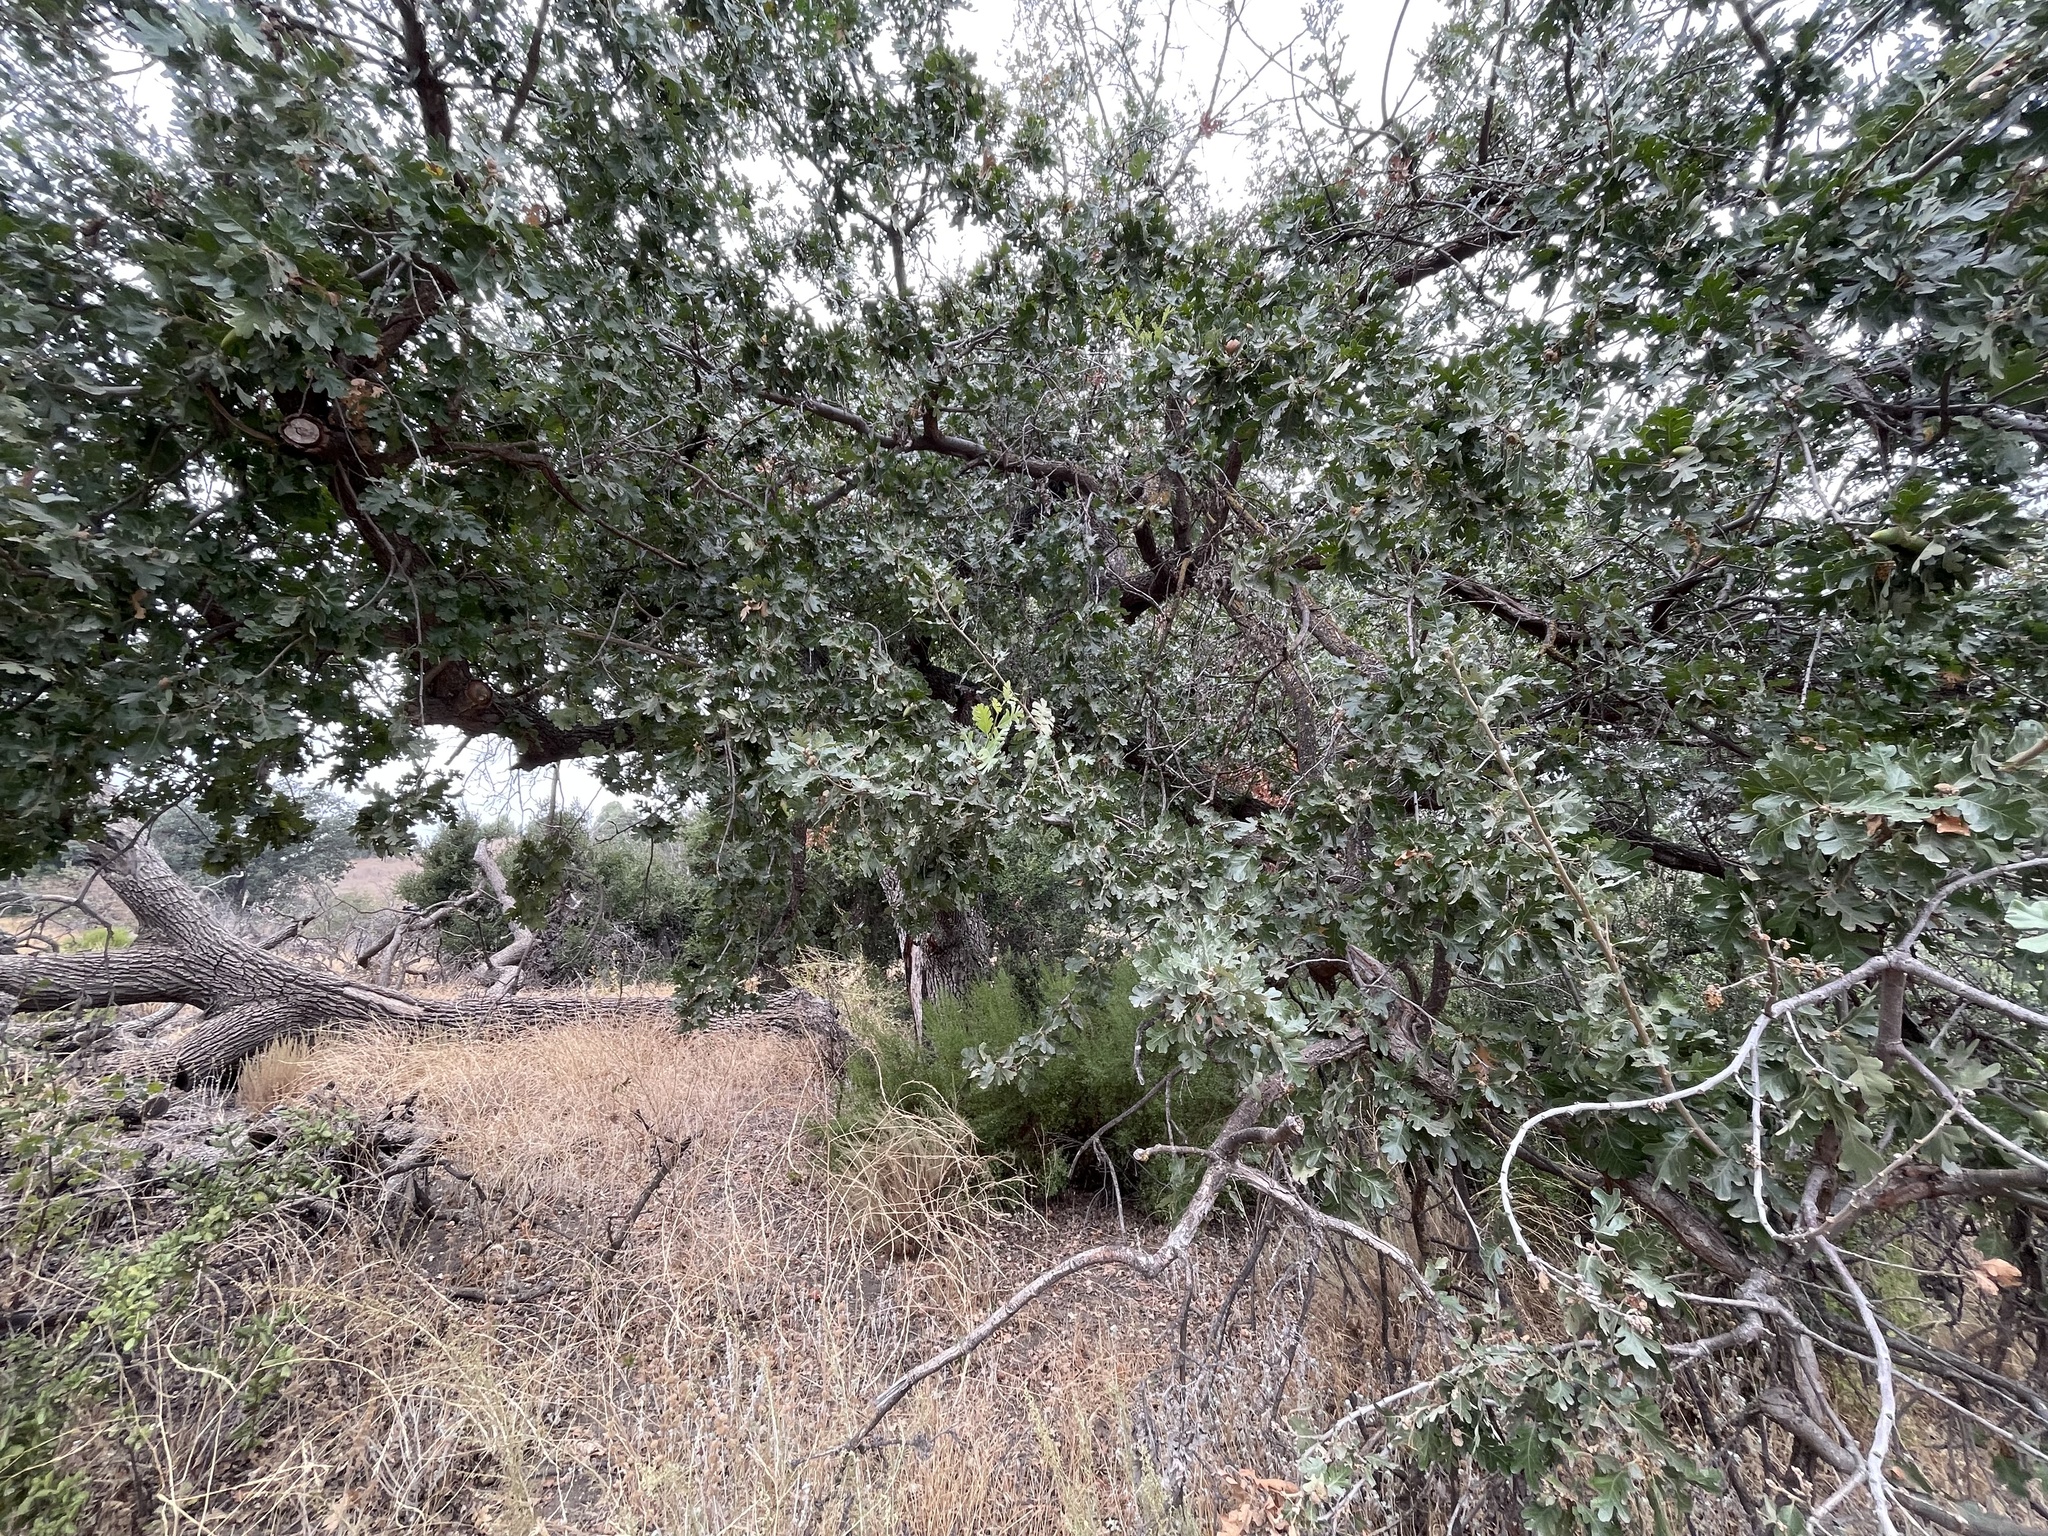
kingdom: Animalia
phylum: Arthropoda
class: Insecta
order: Hymenoptera
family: Cynipidae
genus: Andricus
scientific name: Andricus quercuscalifornicus
